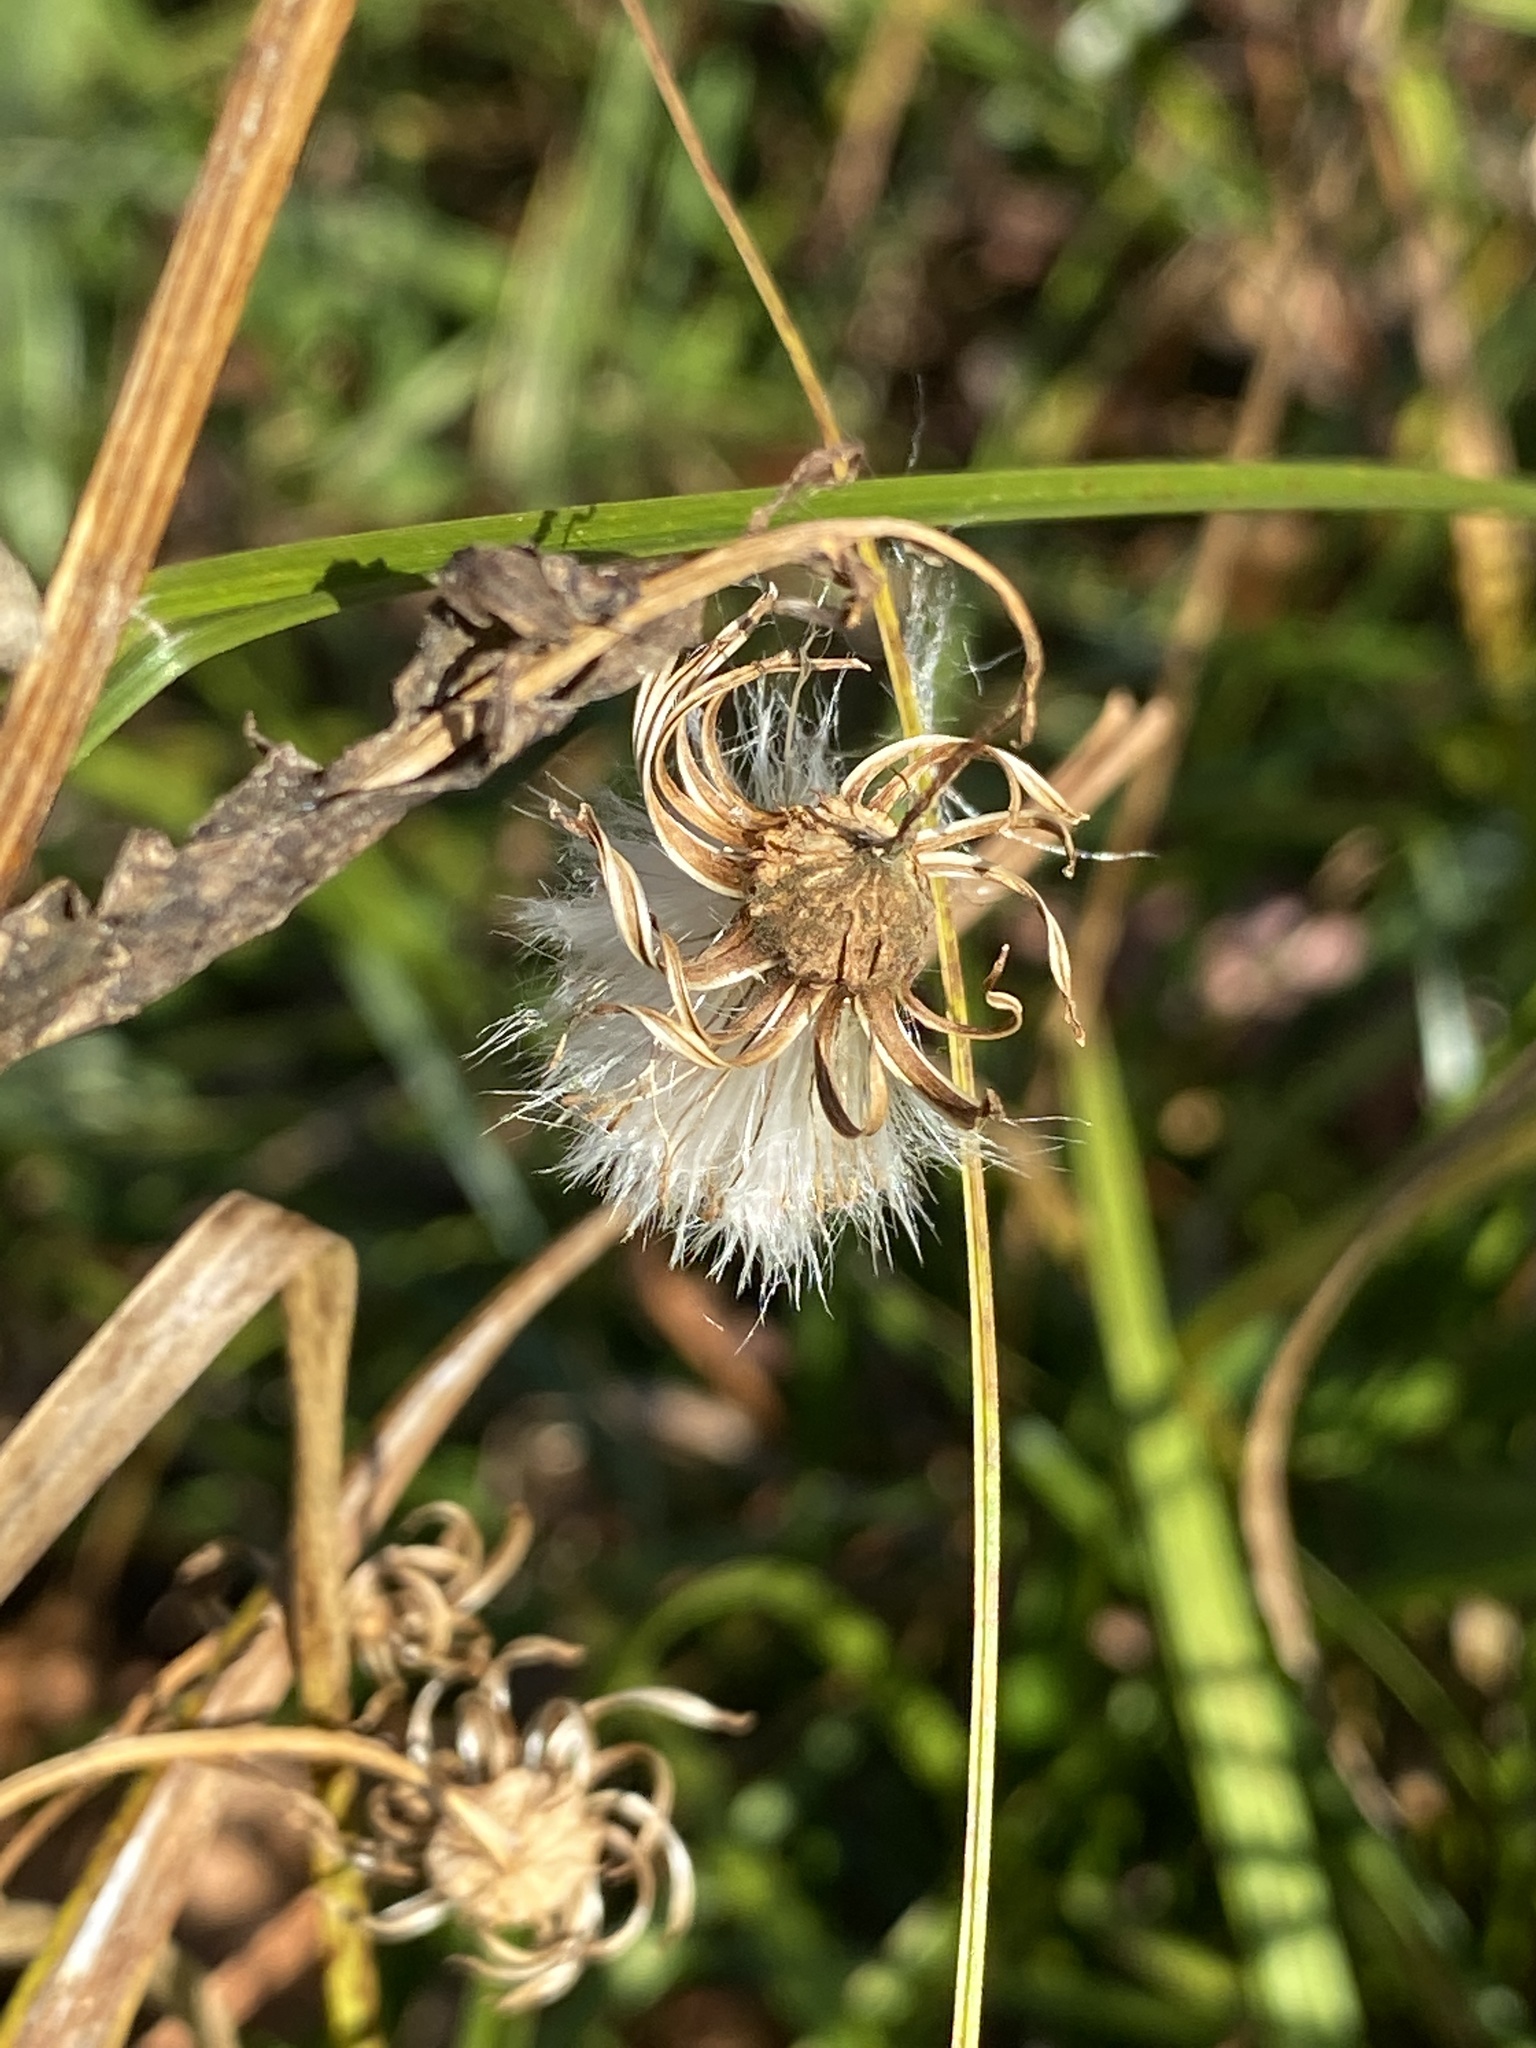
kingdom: Plantae
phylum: Tracheophyta
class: Magnoliopsida
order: Asterales
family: Asteraceae
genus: Erechtites
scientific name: Erechtites hieraciifolius
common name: American burnweed
